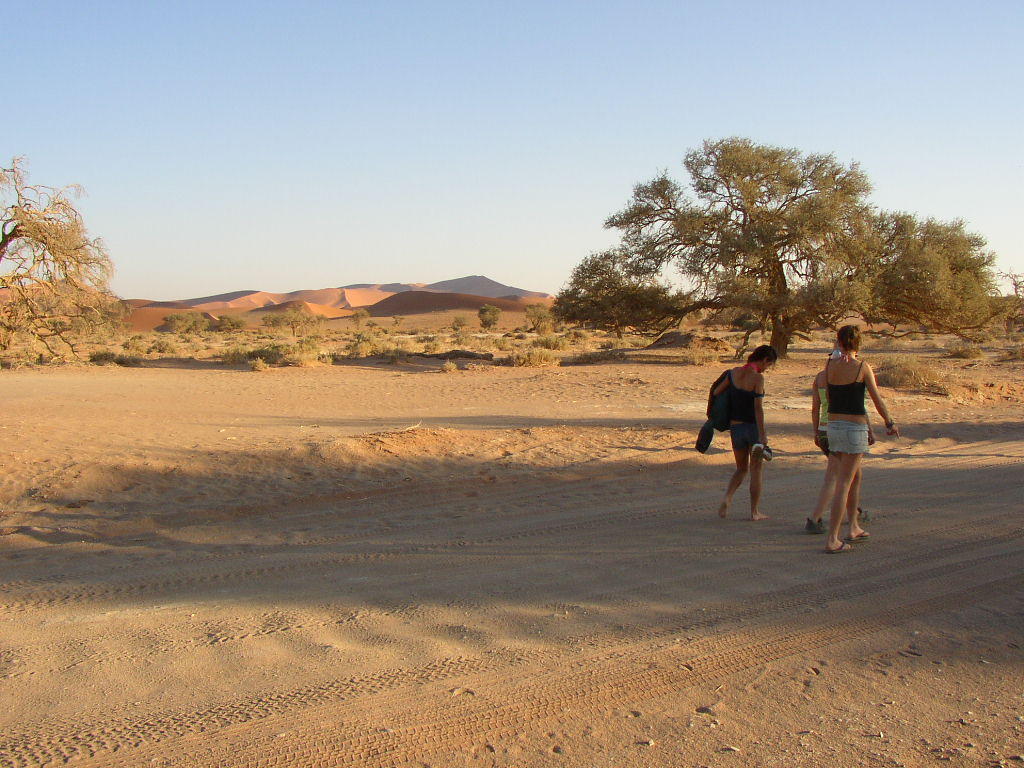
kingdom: Plantae
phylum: Tracheophyta
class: Magnoliopsida
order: Fabales
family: Fabaceae
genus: Vachellia
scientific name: Vachellia erioloba
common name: Camel thorn
